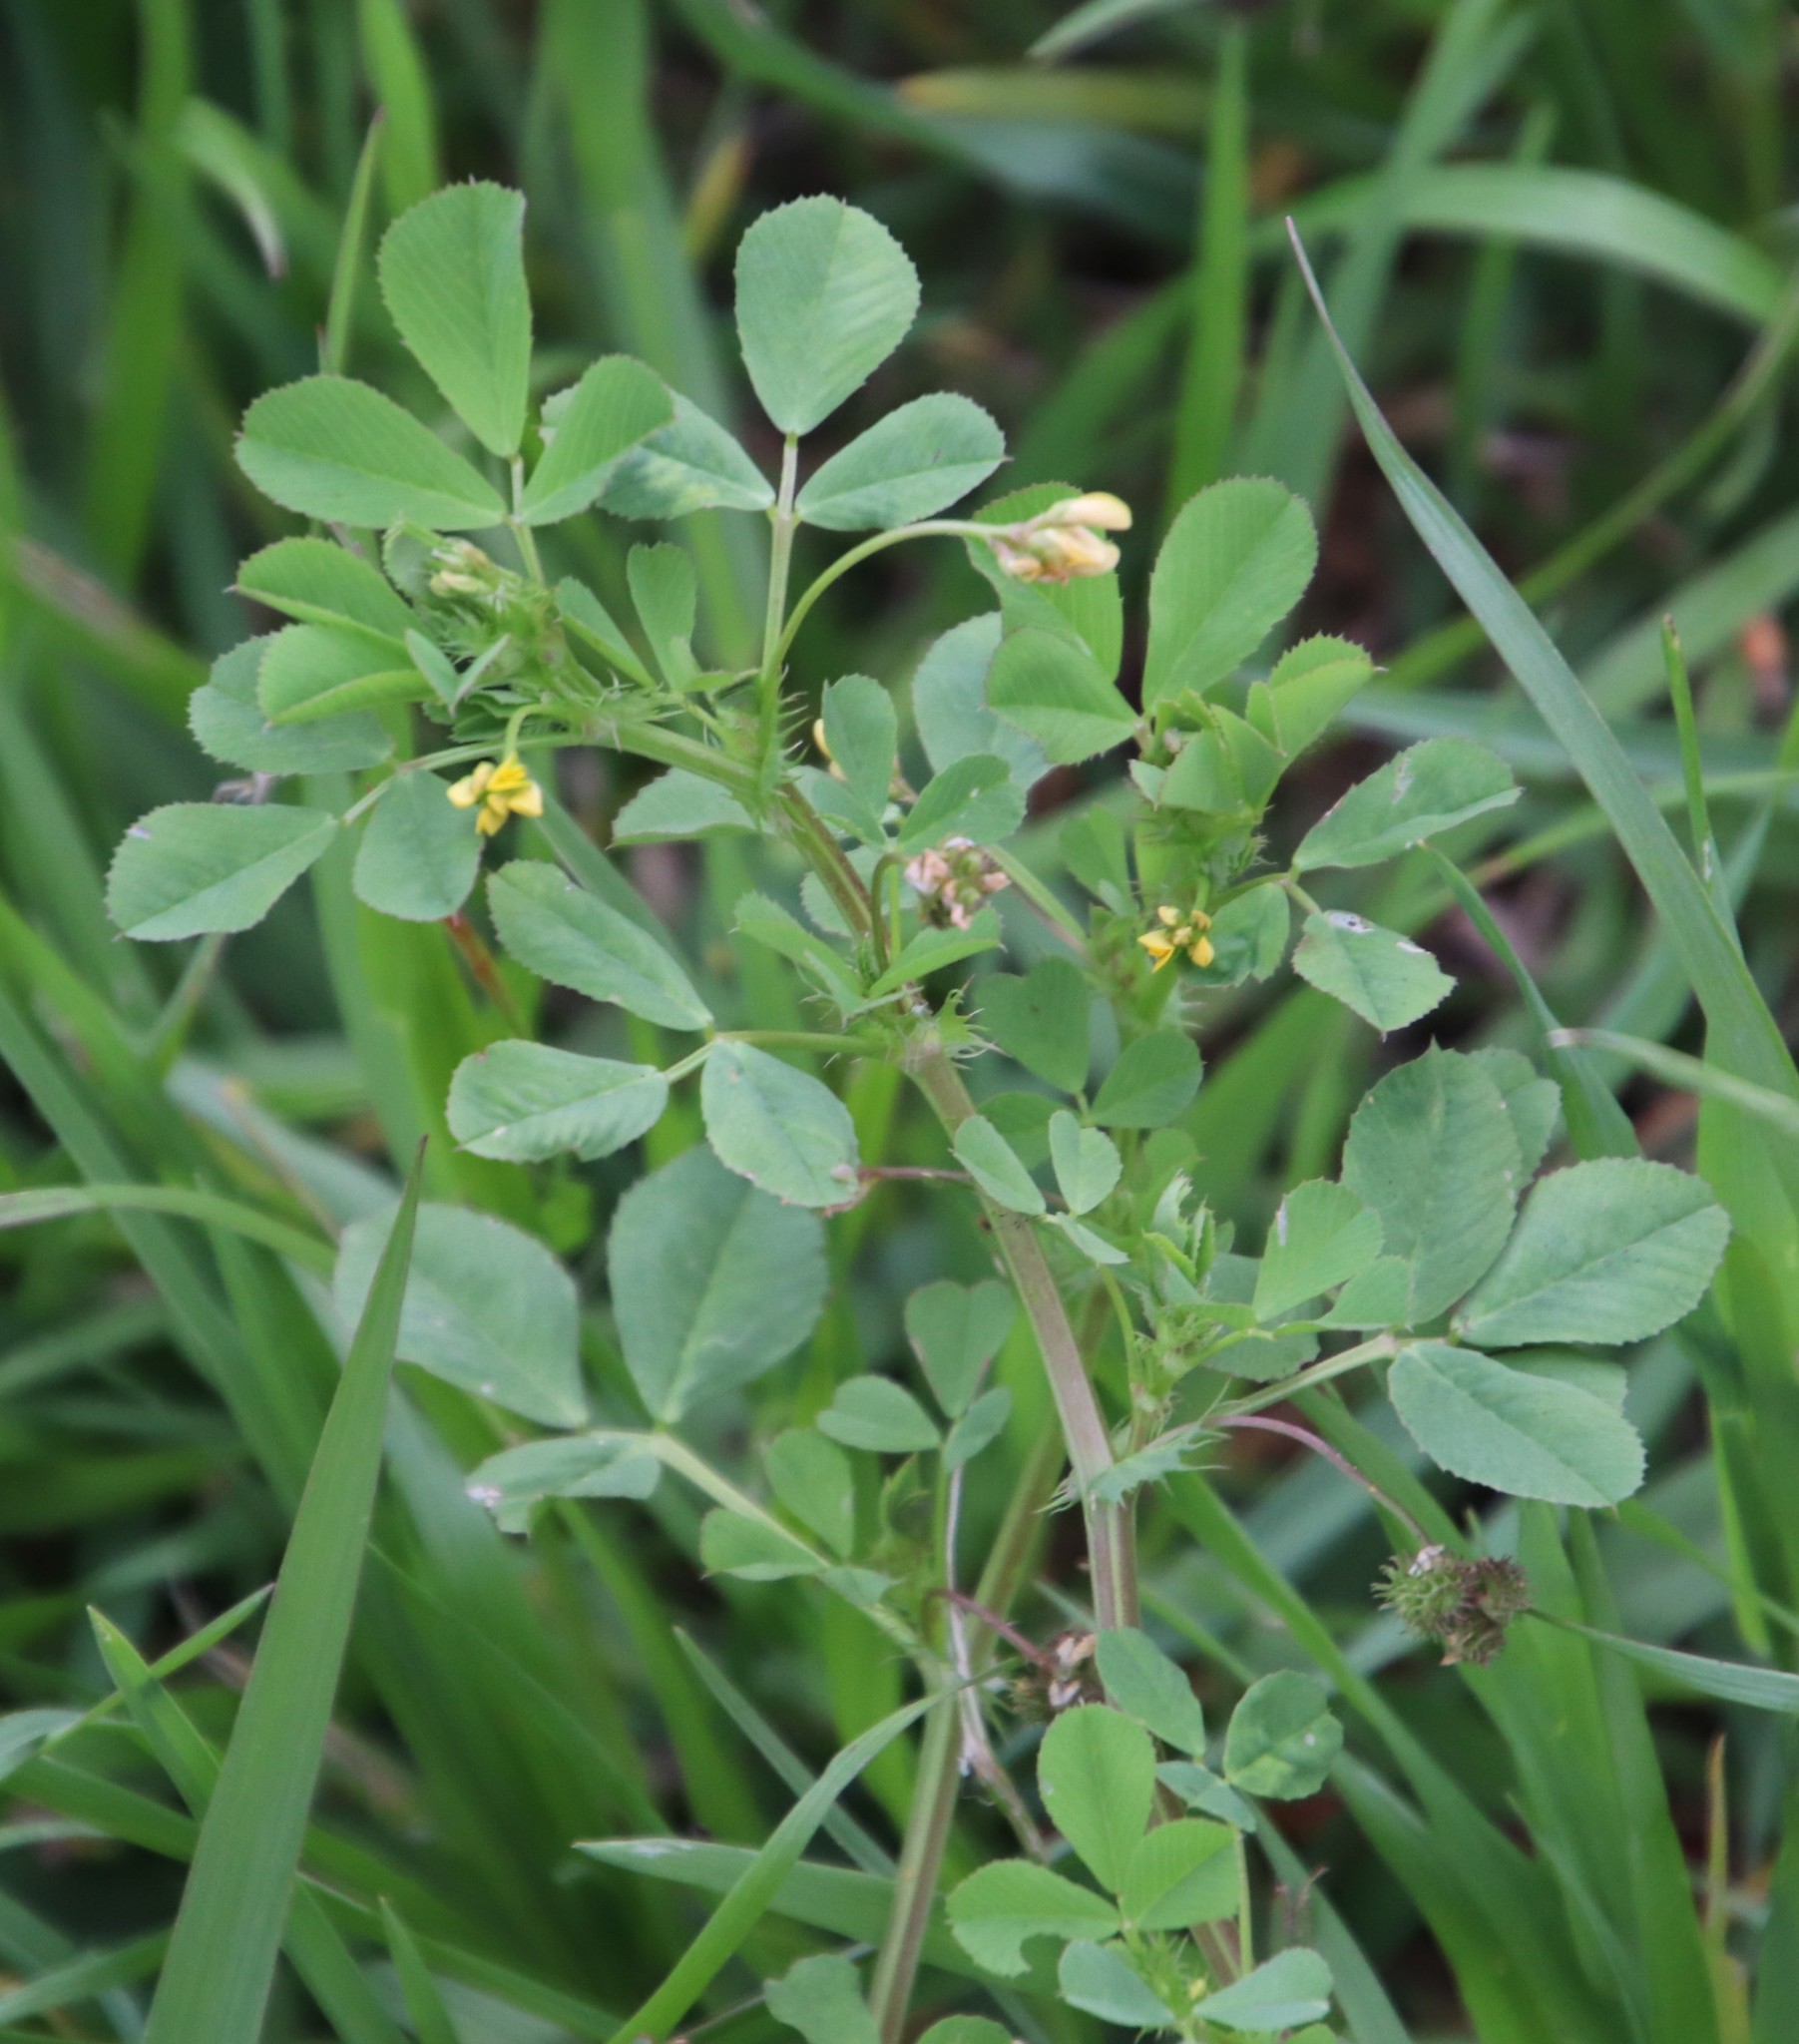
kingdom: Plantae
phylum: Tracheophyta
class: Magnoliopsida
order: Fabales
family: Fabaceae
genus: Medicago
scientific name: Medicago polymorpha
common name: Burclover
